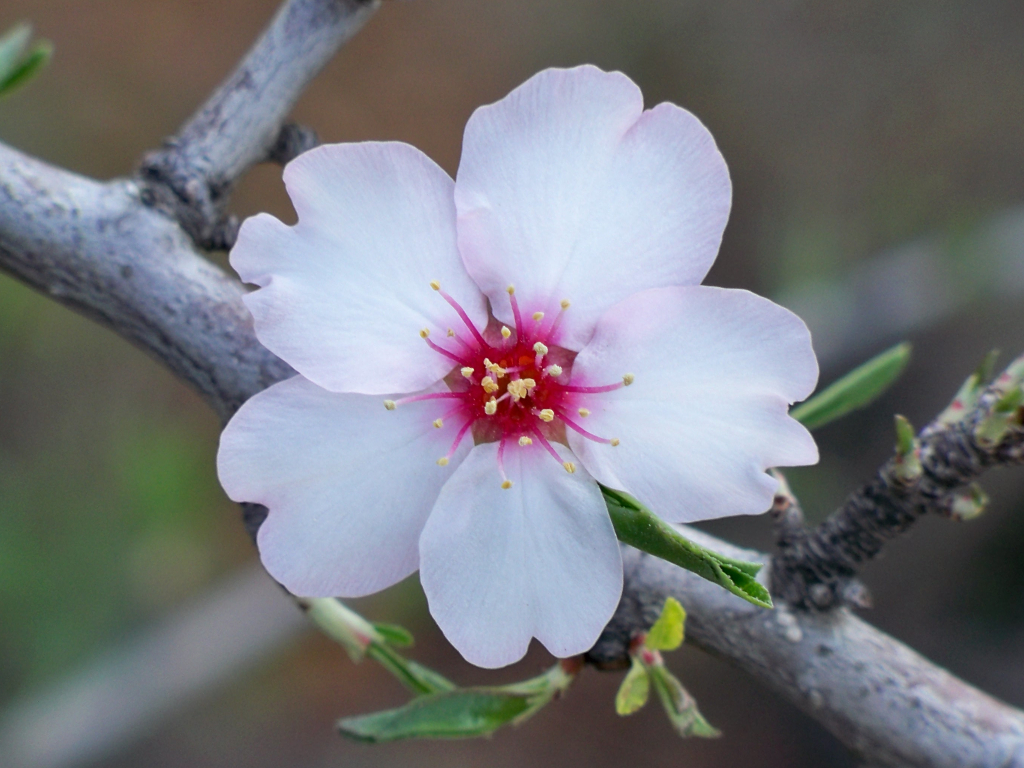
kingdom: Plantae
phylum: Tracheophyta
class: Magnoliopsida
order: Rosales
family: Rosaceae
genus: Prunus
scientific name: Prunus amygdalus
